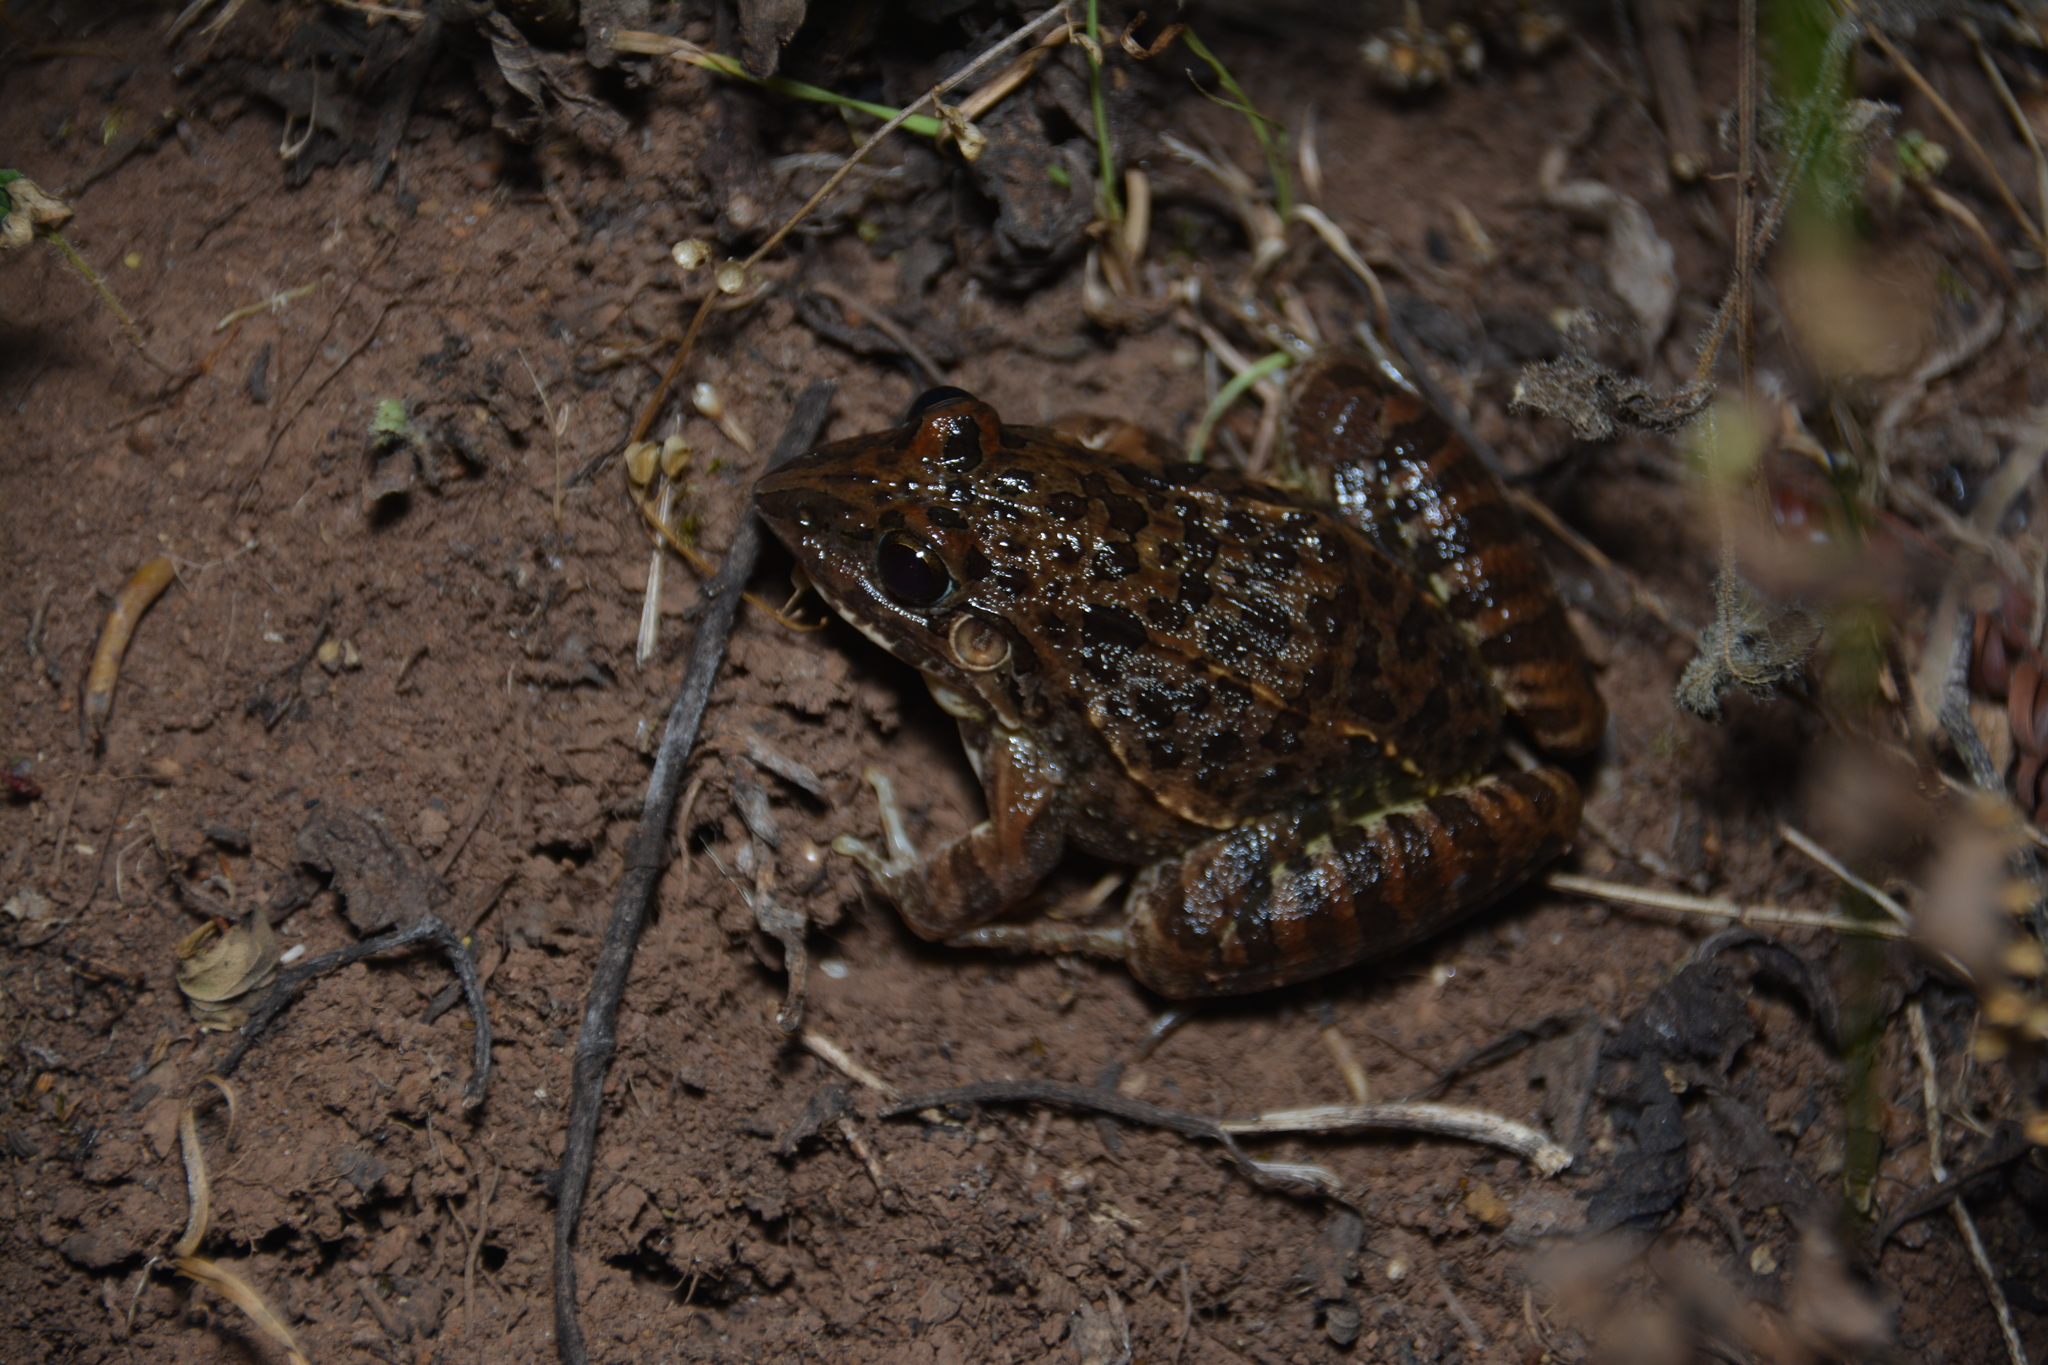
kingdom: Animalia
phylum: Chordata
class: Amphibia
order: Anura
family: Leptodactylidae
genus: Leptodactylus
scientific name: Leptodactylus fuscus
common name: Rufous frog
